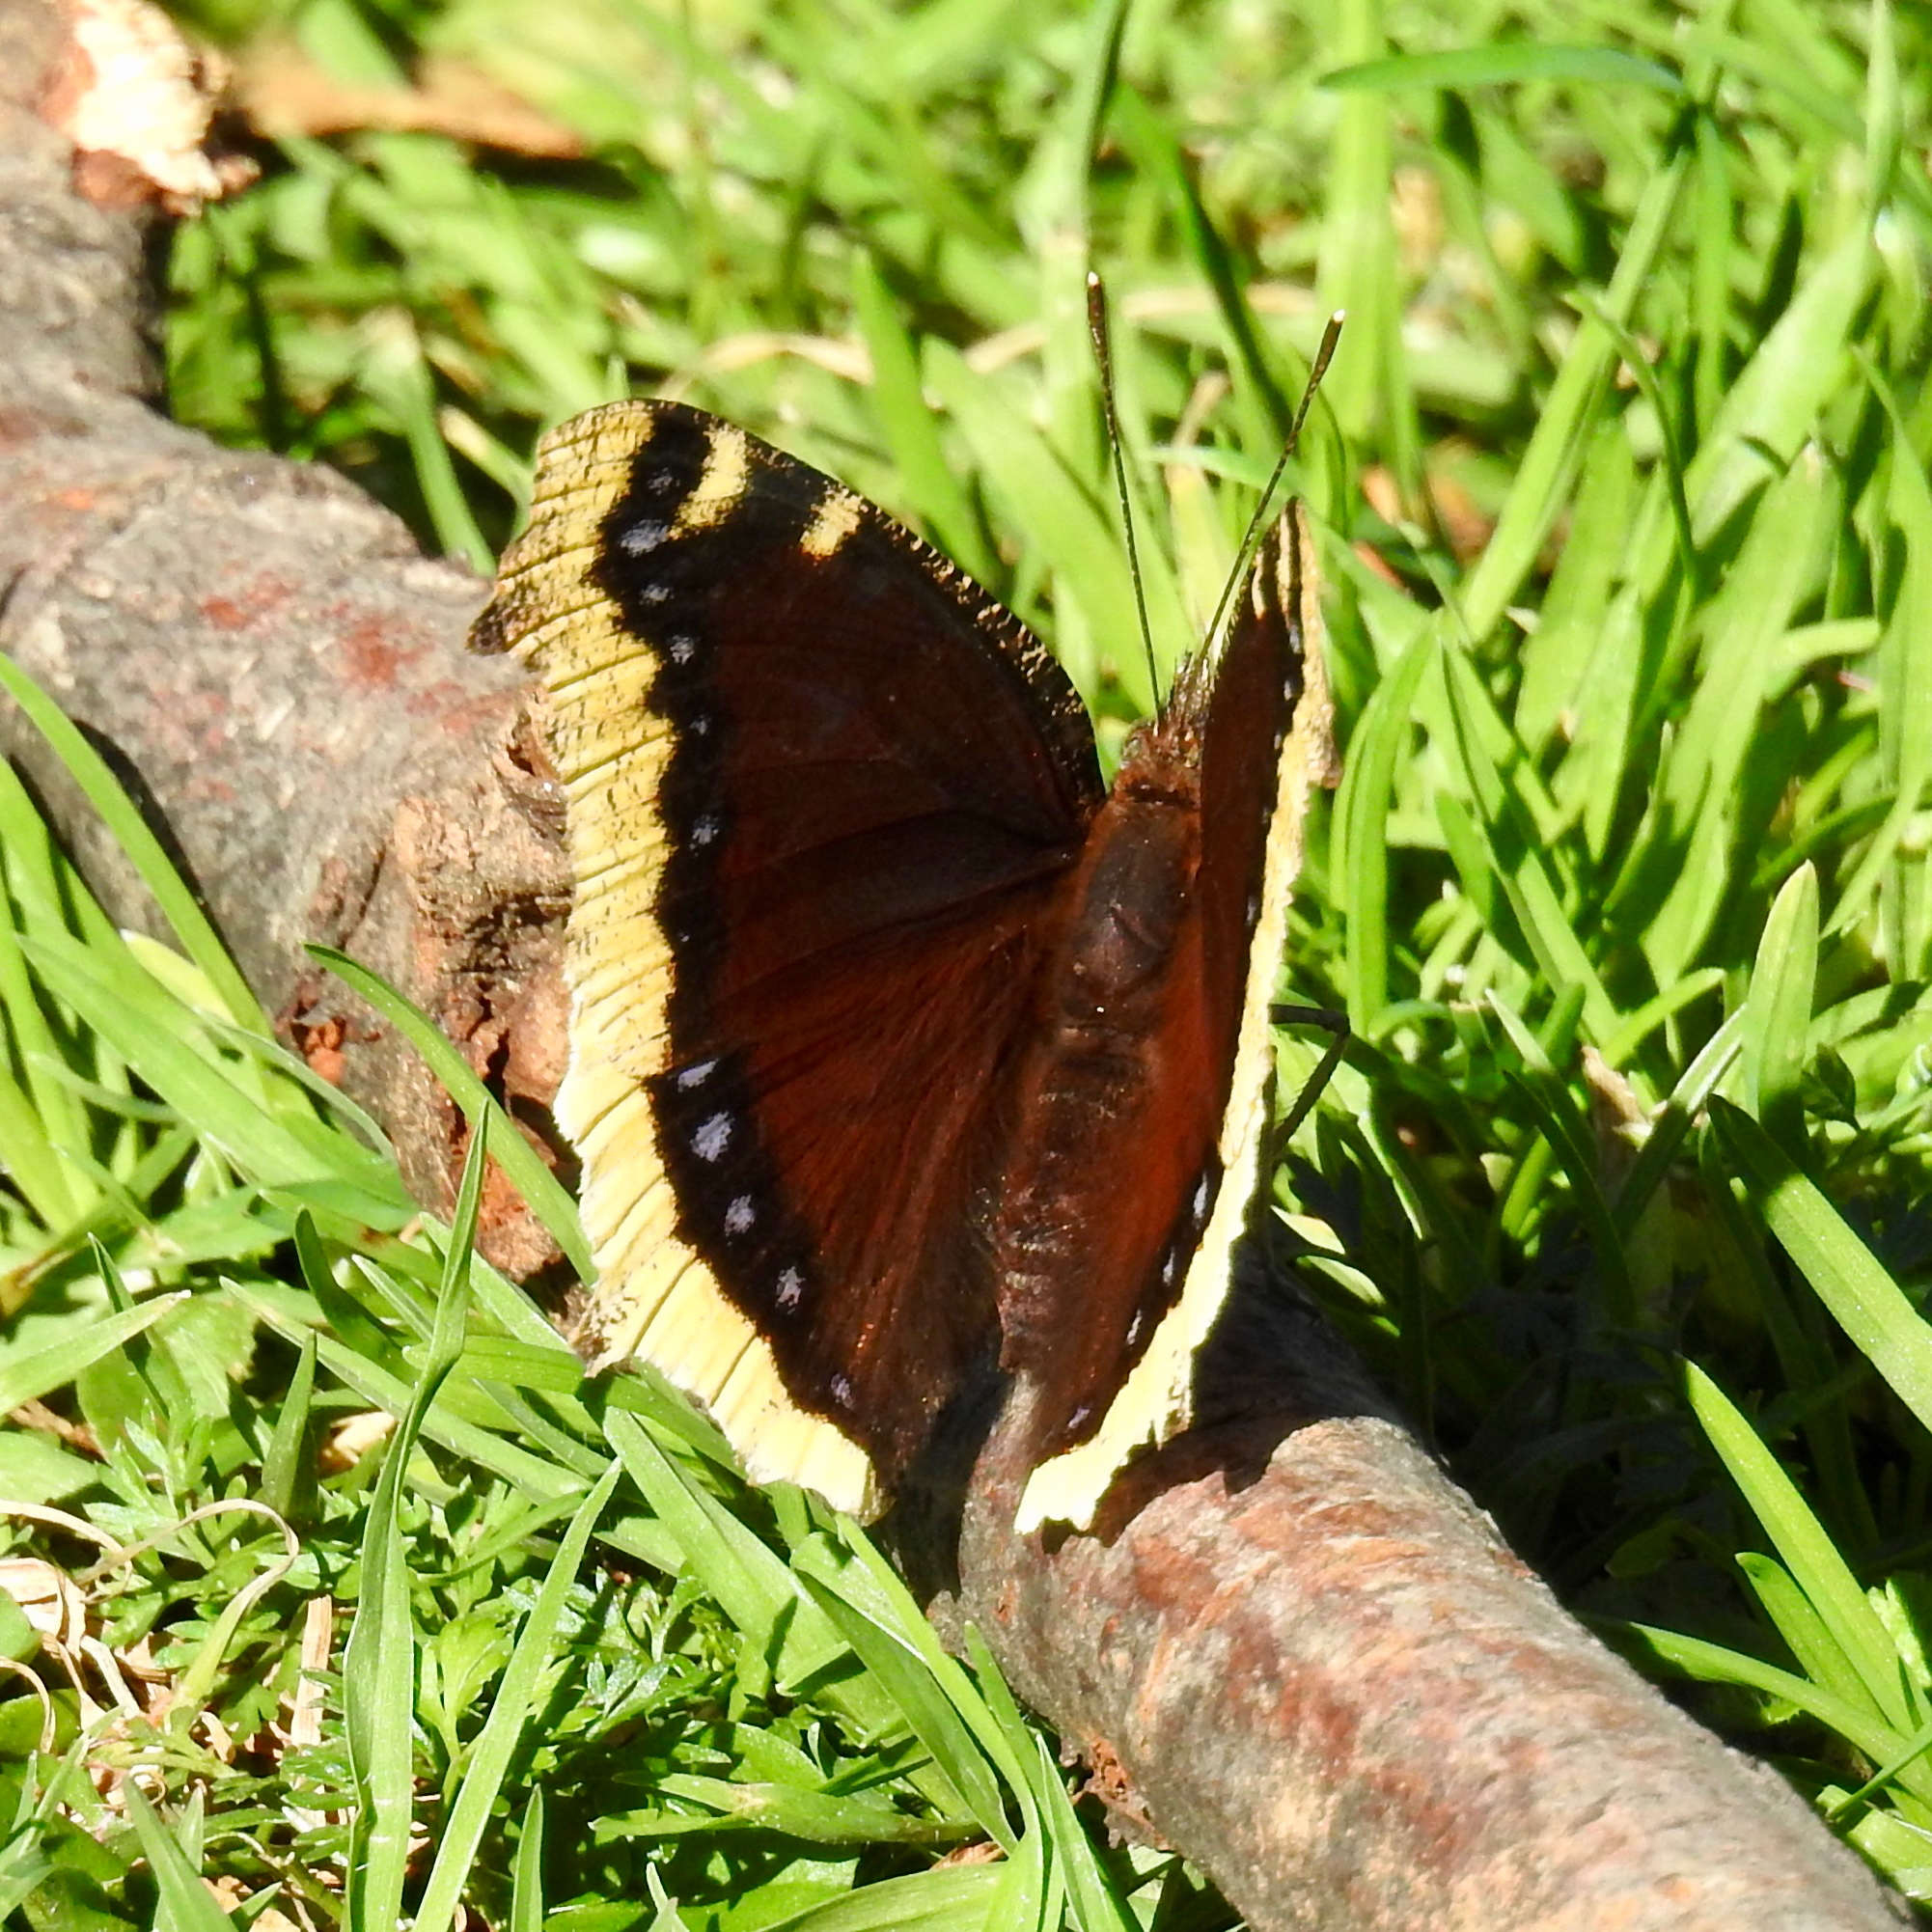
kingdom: Animalia
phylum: Arthropoda
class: Insecta
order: Lepidoptera
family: Nymphalidae
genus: Nymphalis
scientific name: Nymphalis antiopa
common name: Camberwell beauty
